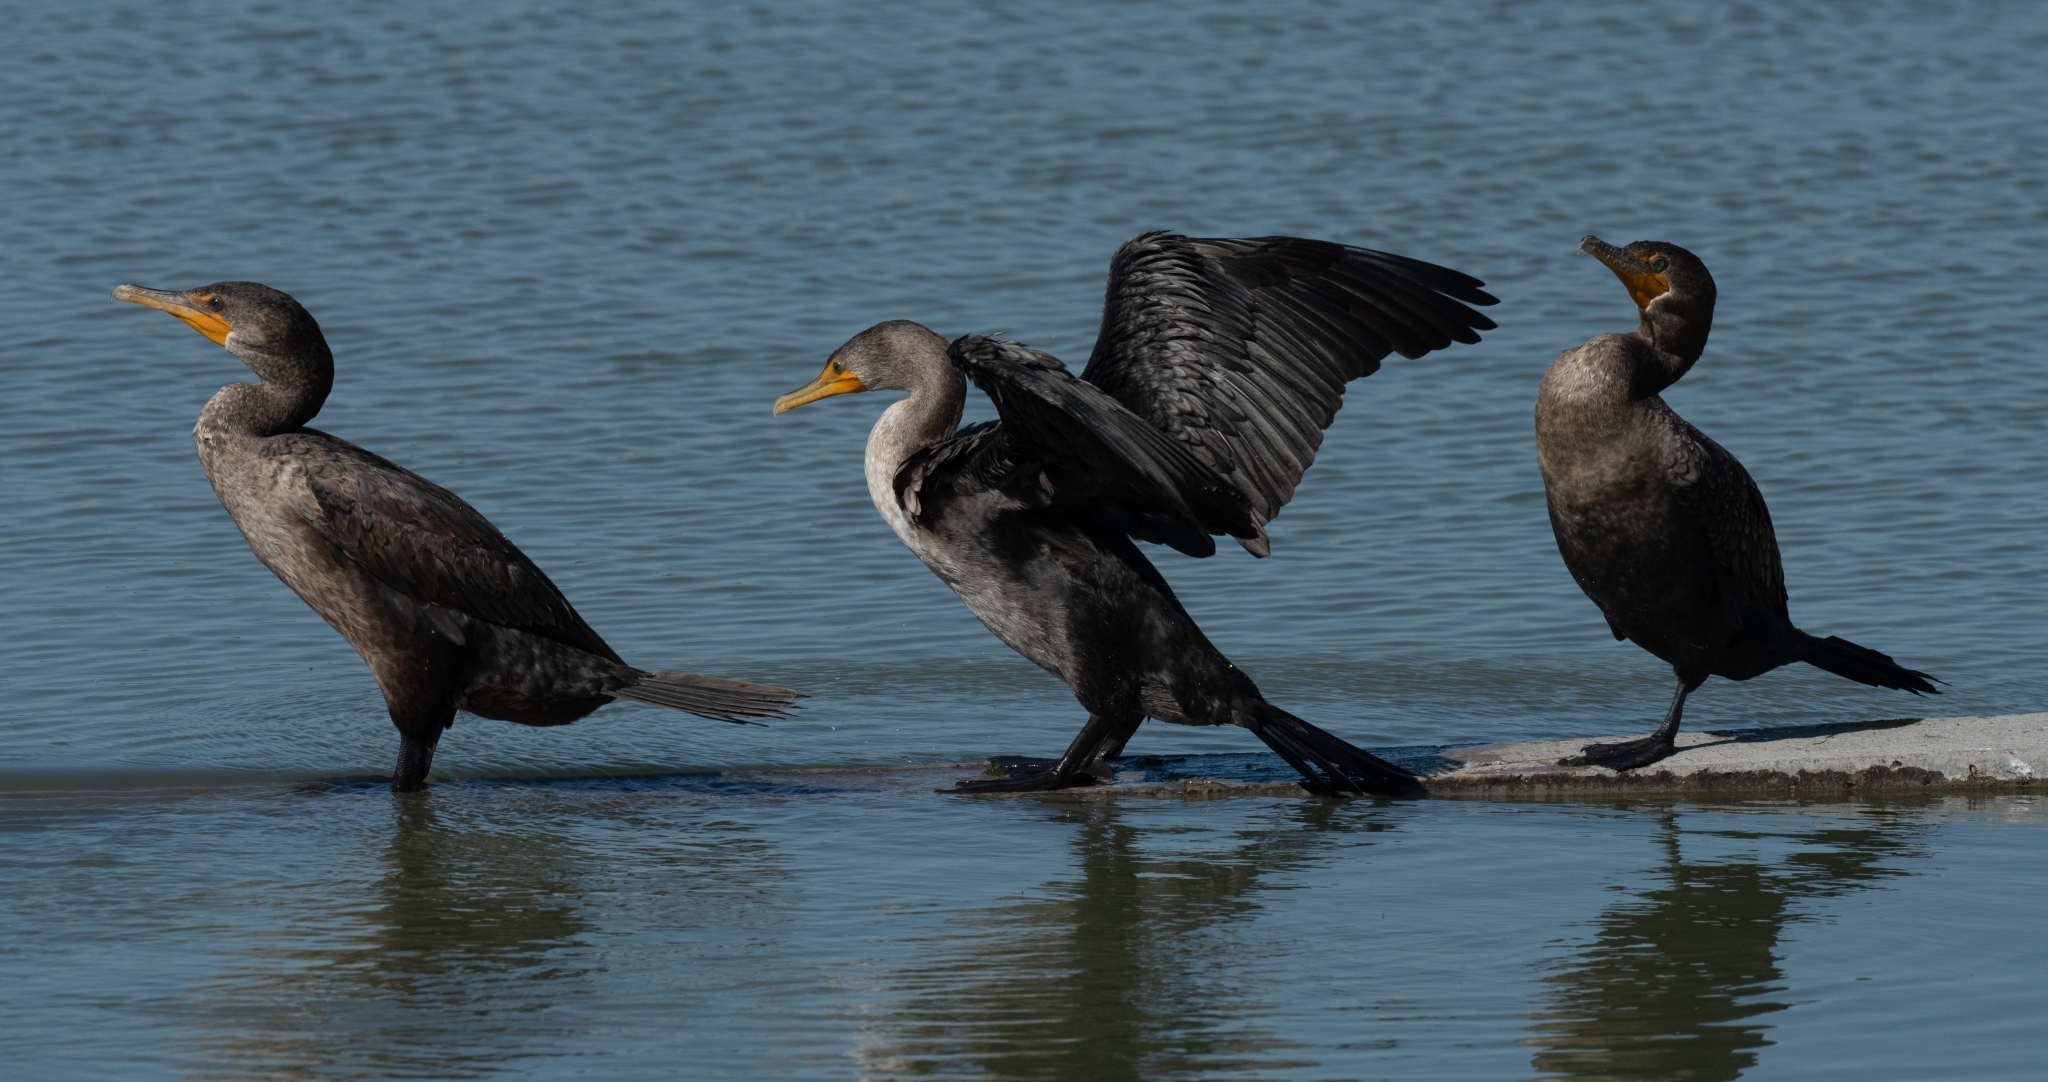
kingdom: Animalia
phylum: Chordata
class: Aves
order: Suliformes
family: Phalacrocoracidae
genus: Phalacrocorax
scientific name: Phalacrocorax auritus
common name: Double-crested cormorant
